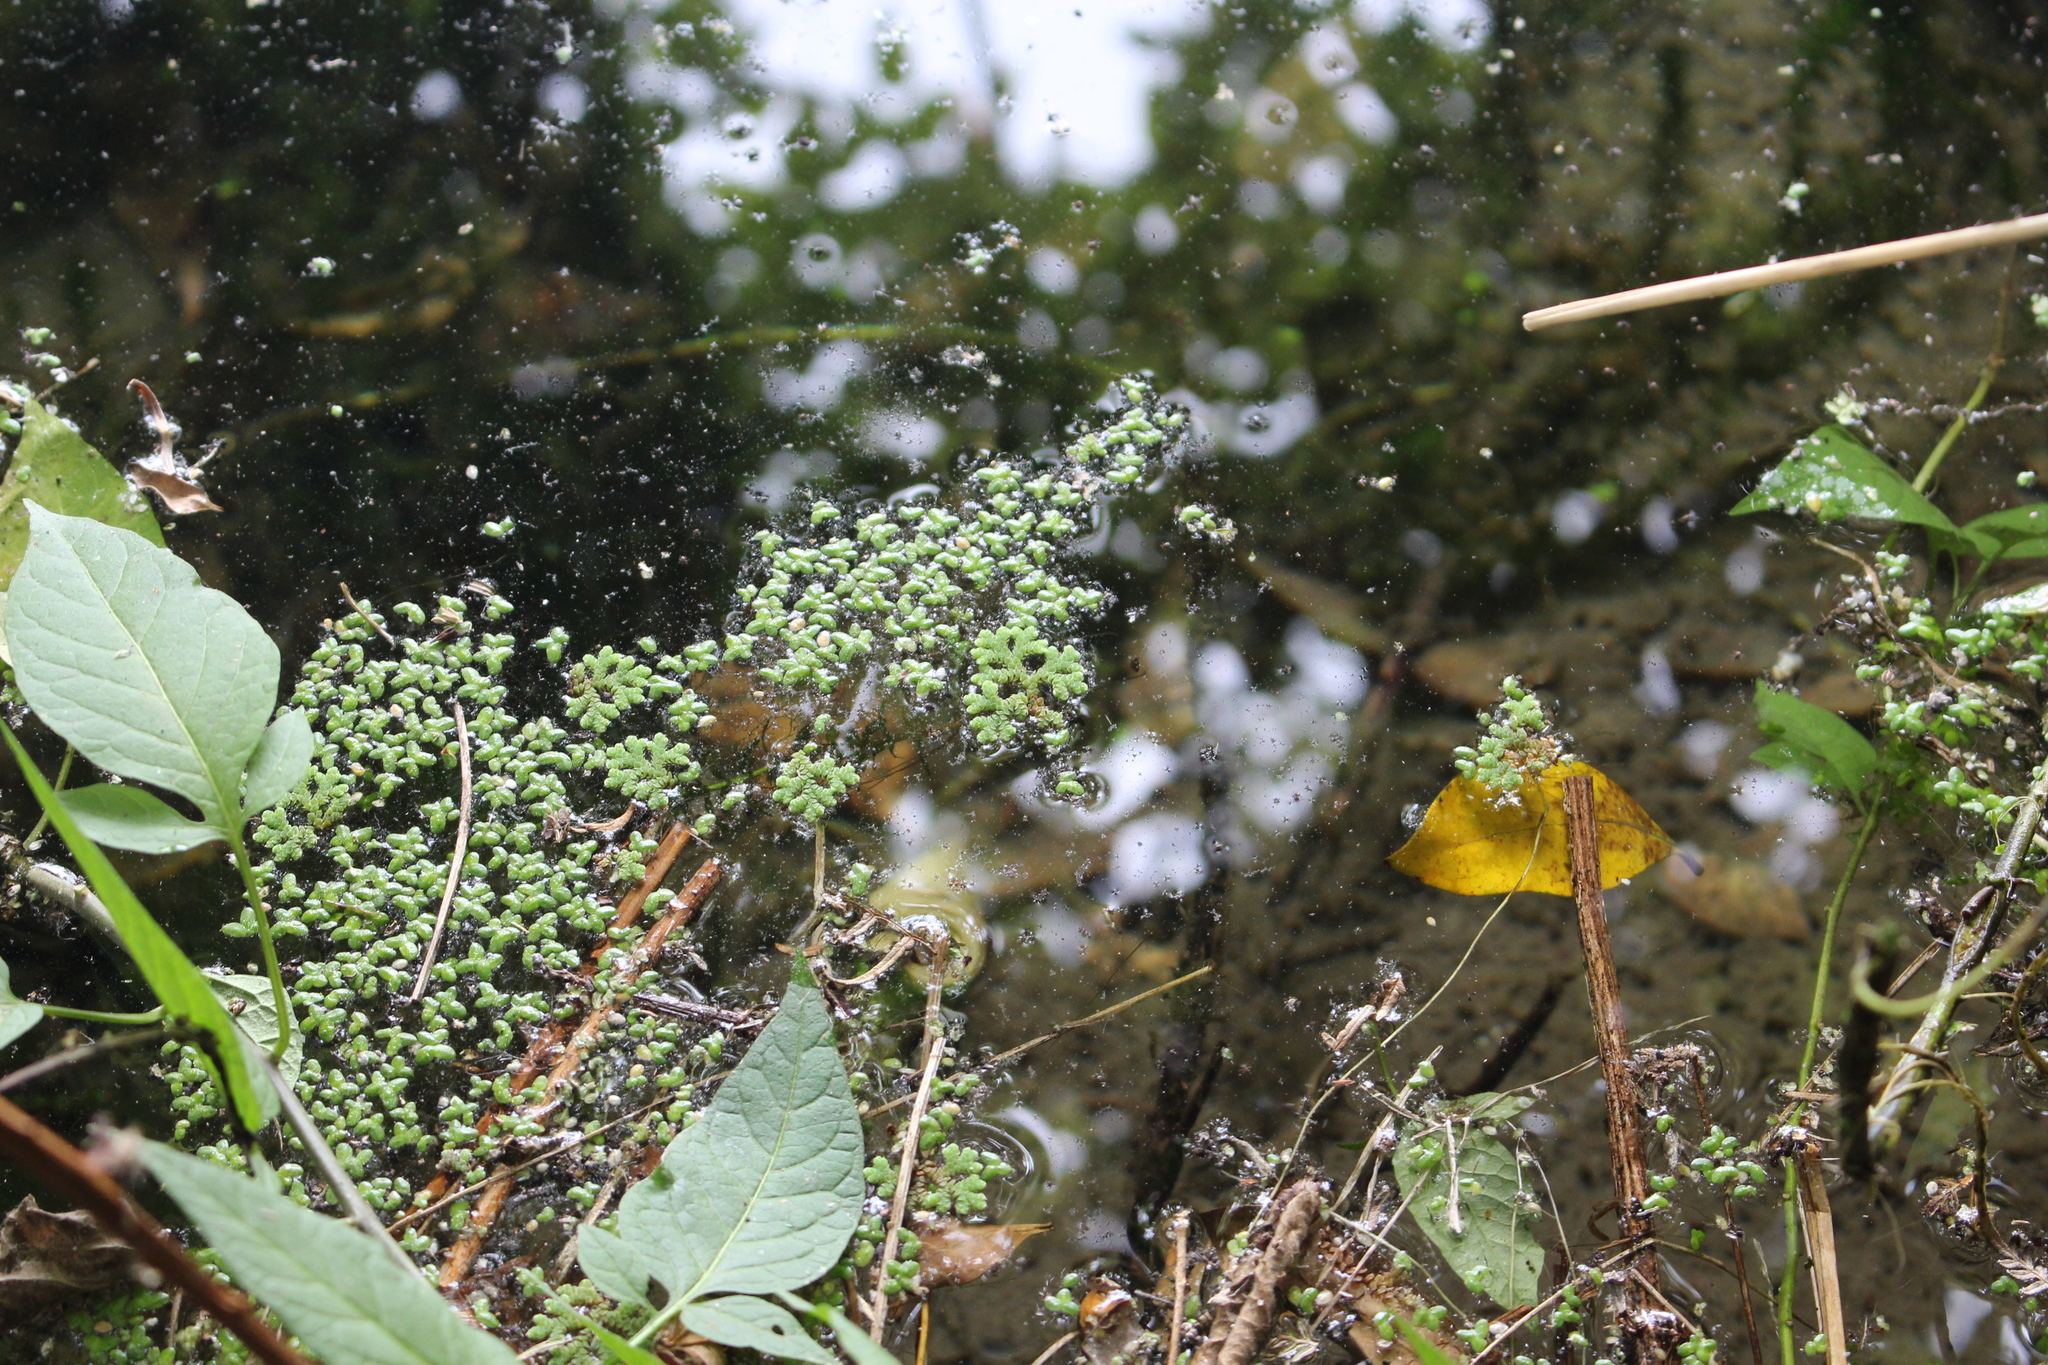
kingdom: Plantae
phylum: Tracheophyta
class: Polypodiopsida
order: Salviniales
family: Salviniaceae
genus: Azolla
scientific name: Azolla rubra
